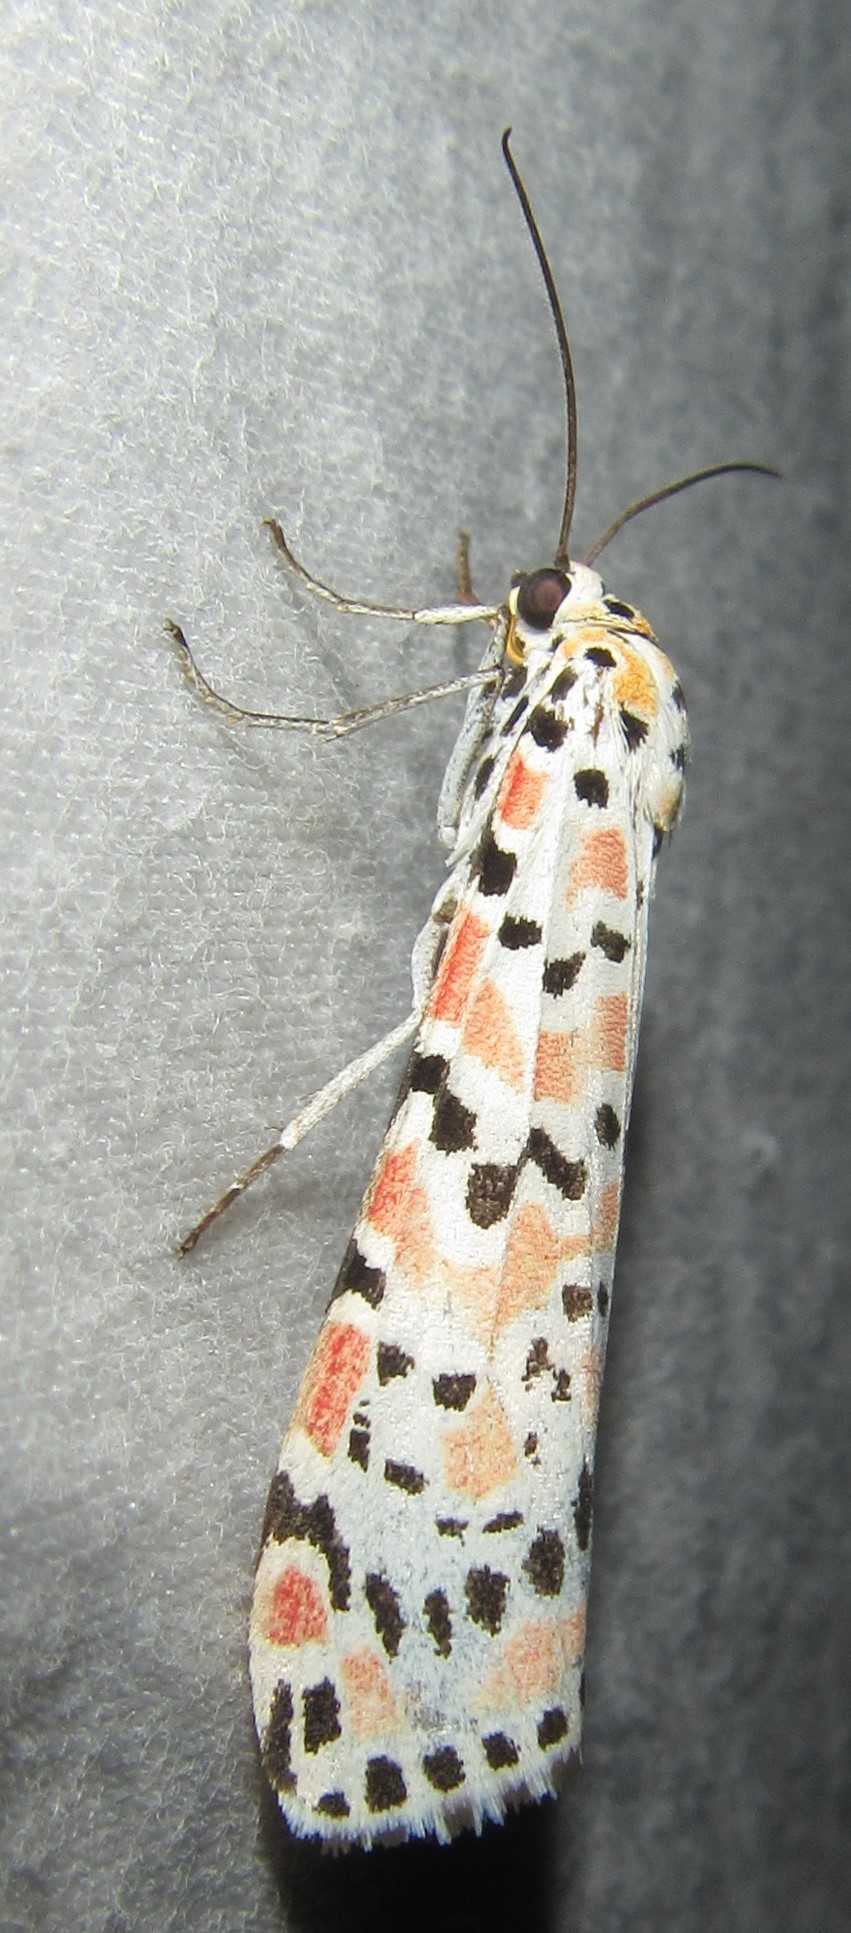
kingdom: Animalia
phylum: Arthropoda
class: Insecta
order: Lepidoptera
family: Erebidae
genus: Utetheisa
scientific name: Utetheisa pulchella
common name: Crimson speckled
